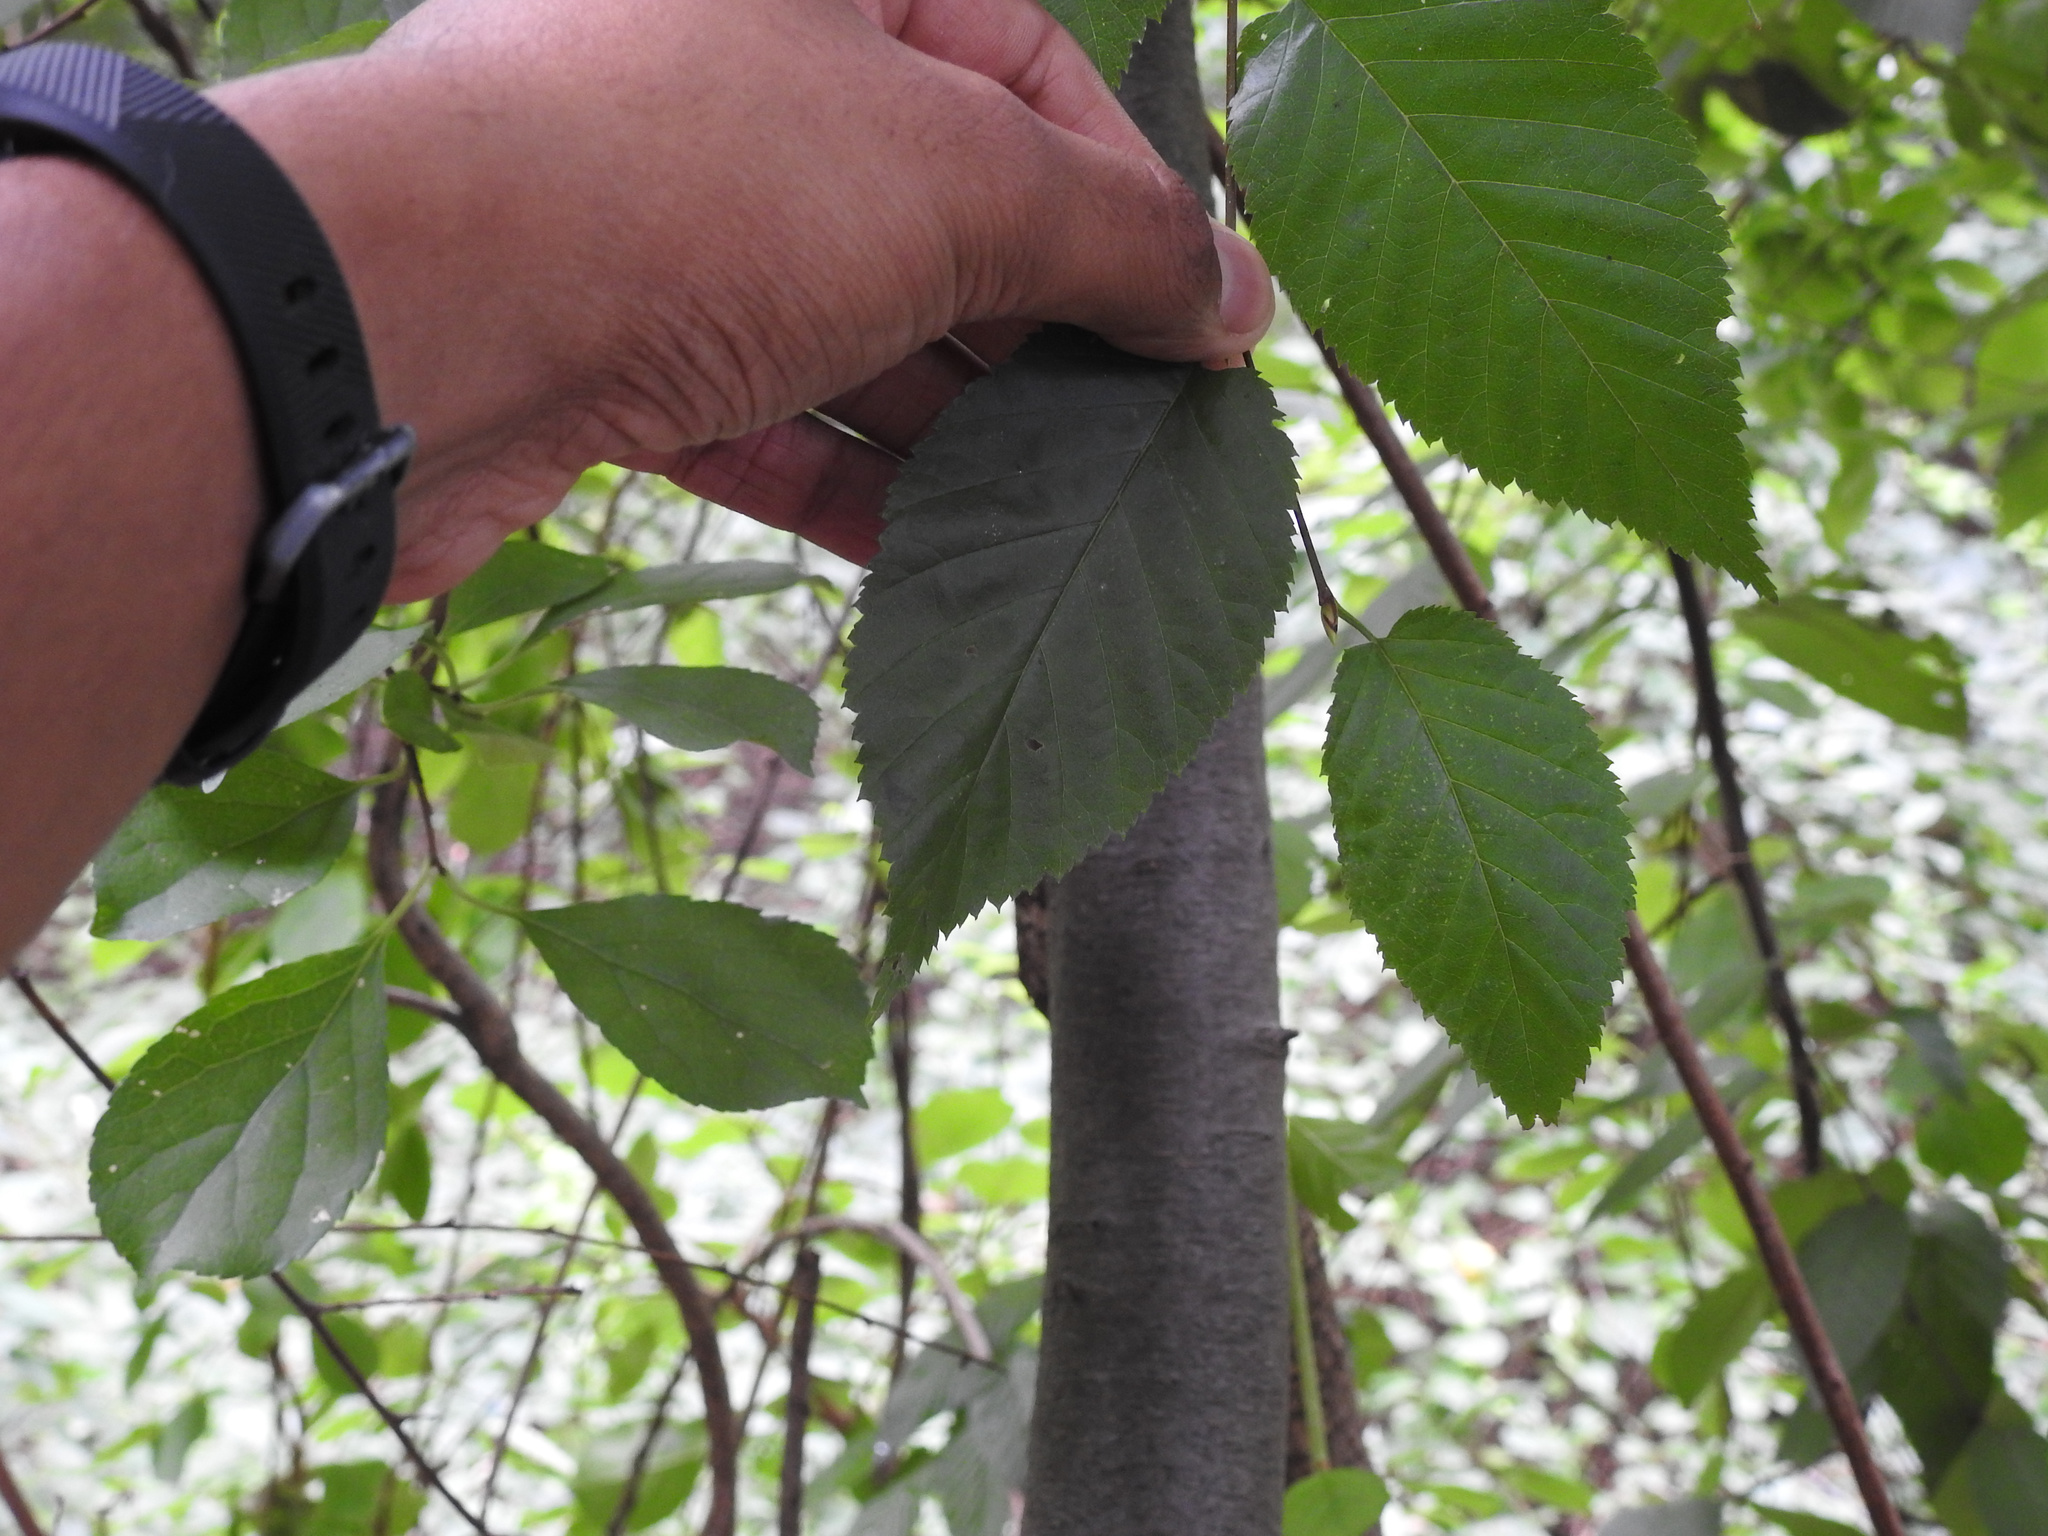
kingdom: Plantae
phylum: Tracheophyta
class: Magnoliopsida
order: Fagales
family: Betulaceae
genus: Betula
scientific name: Betula lenta
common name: Black birch
